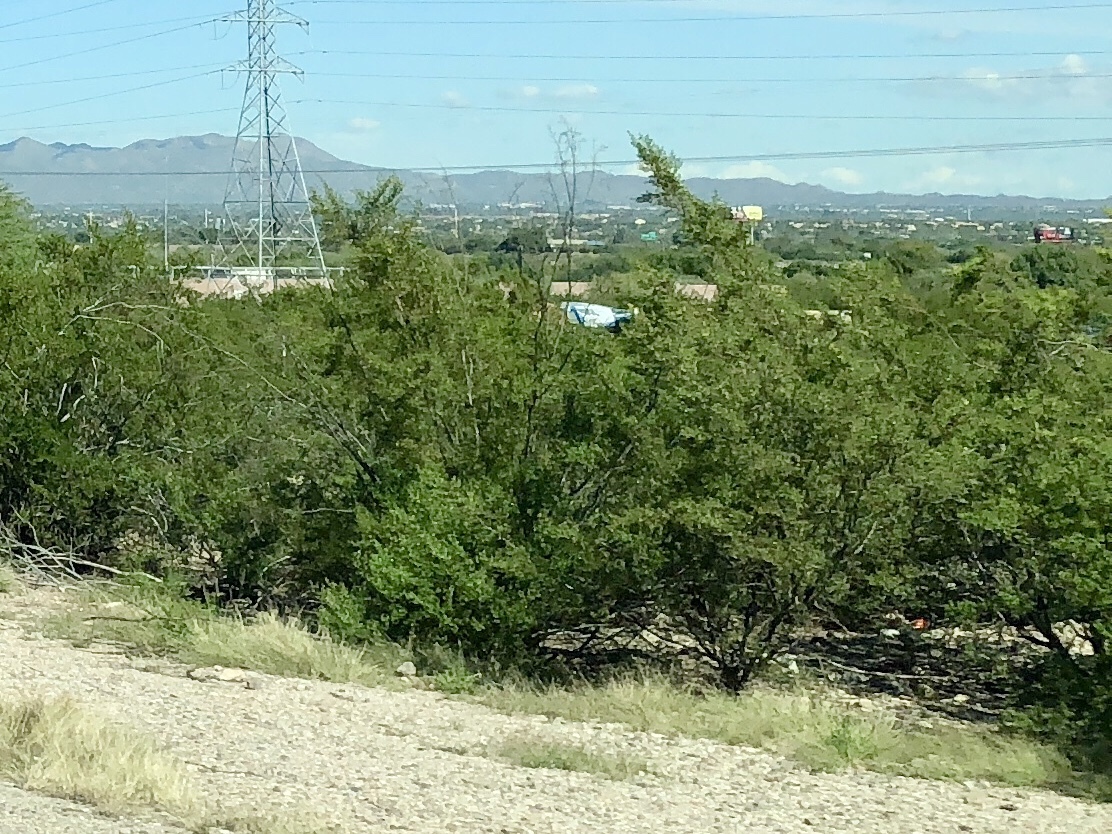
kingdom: Plantae
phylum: Tracheophyta
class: Magnoliopsida
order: Zygophyllales
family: Zygophyllaceae
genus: Larrea
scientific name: Larrea tridentata
